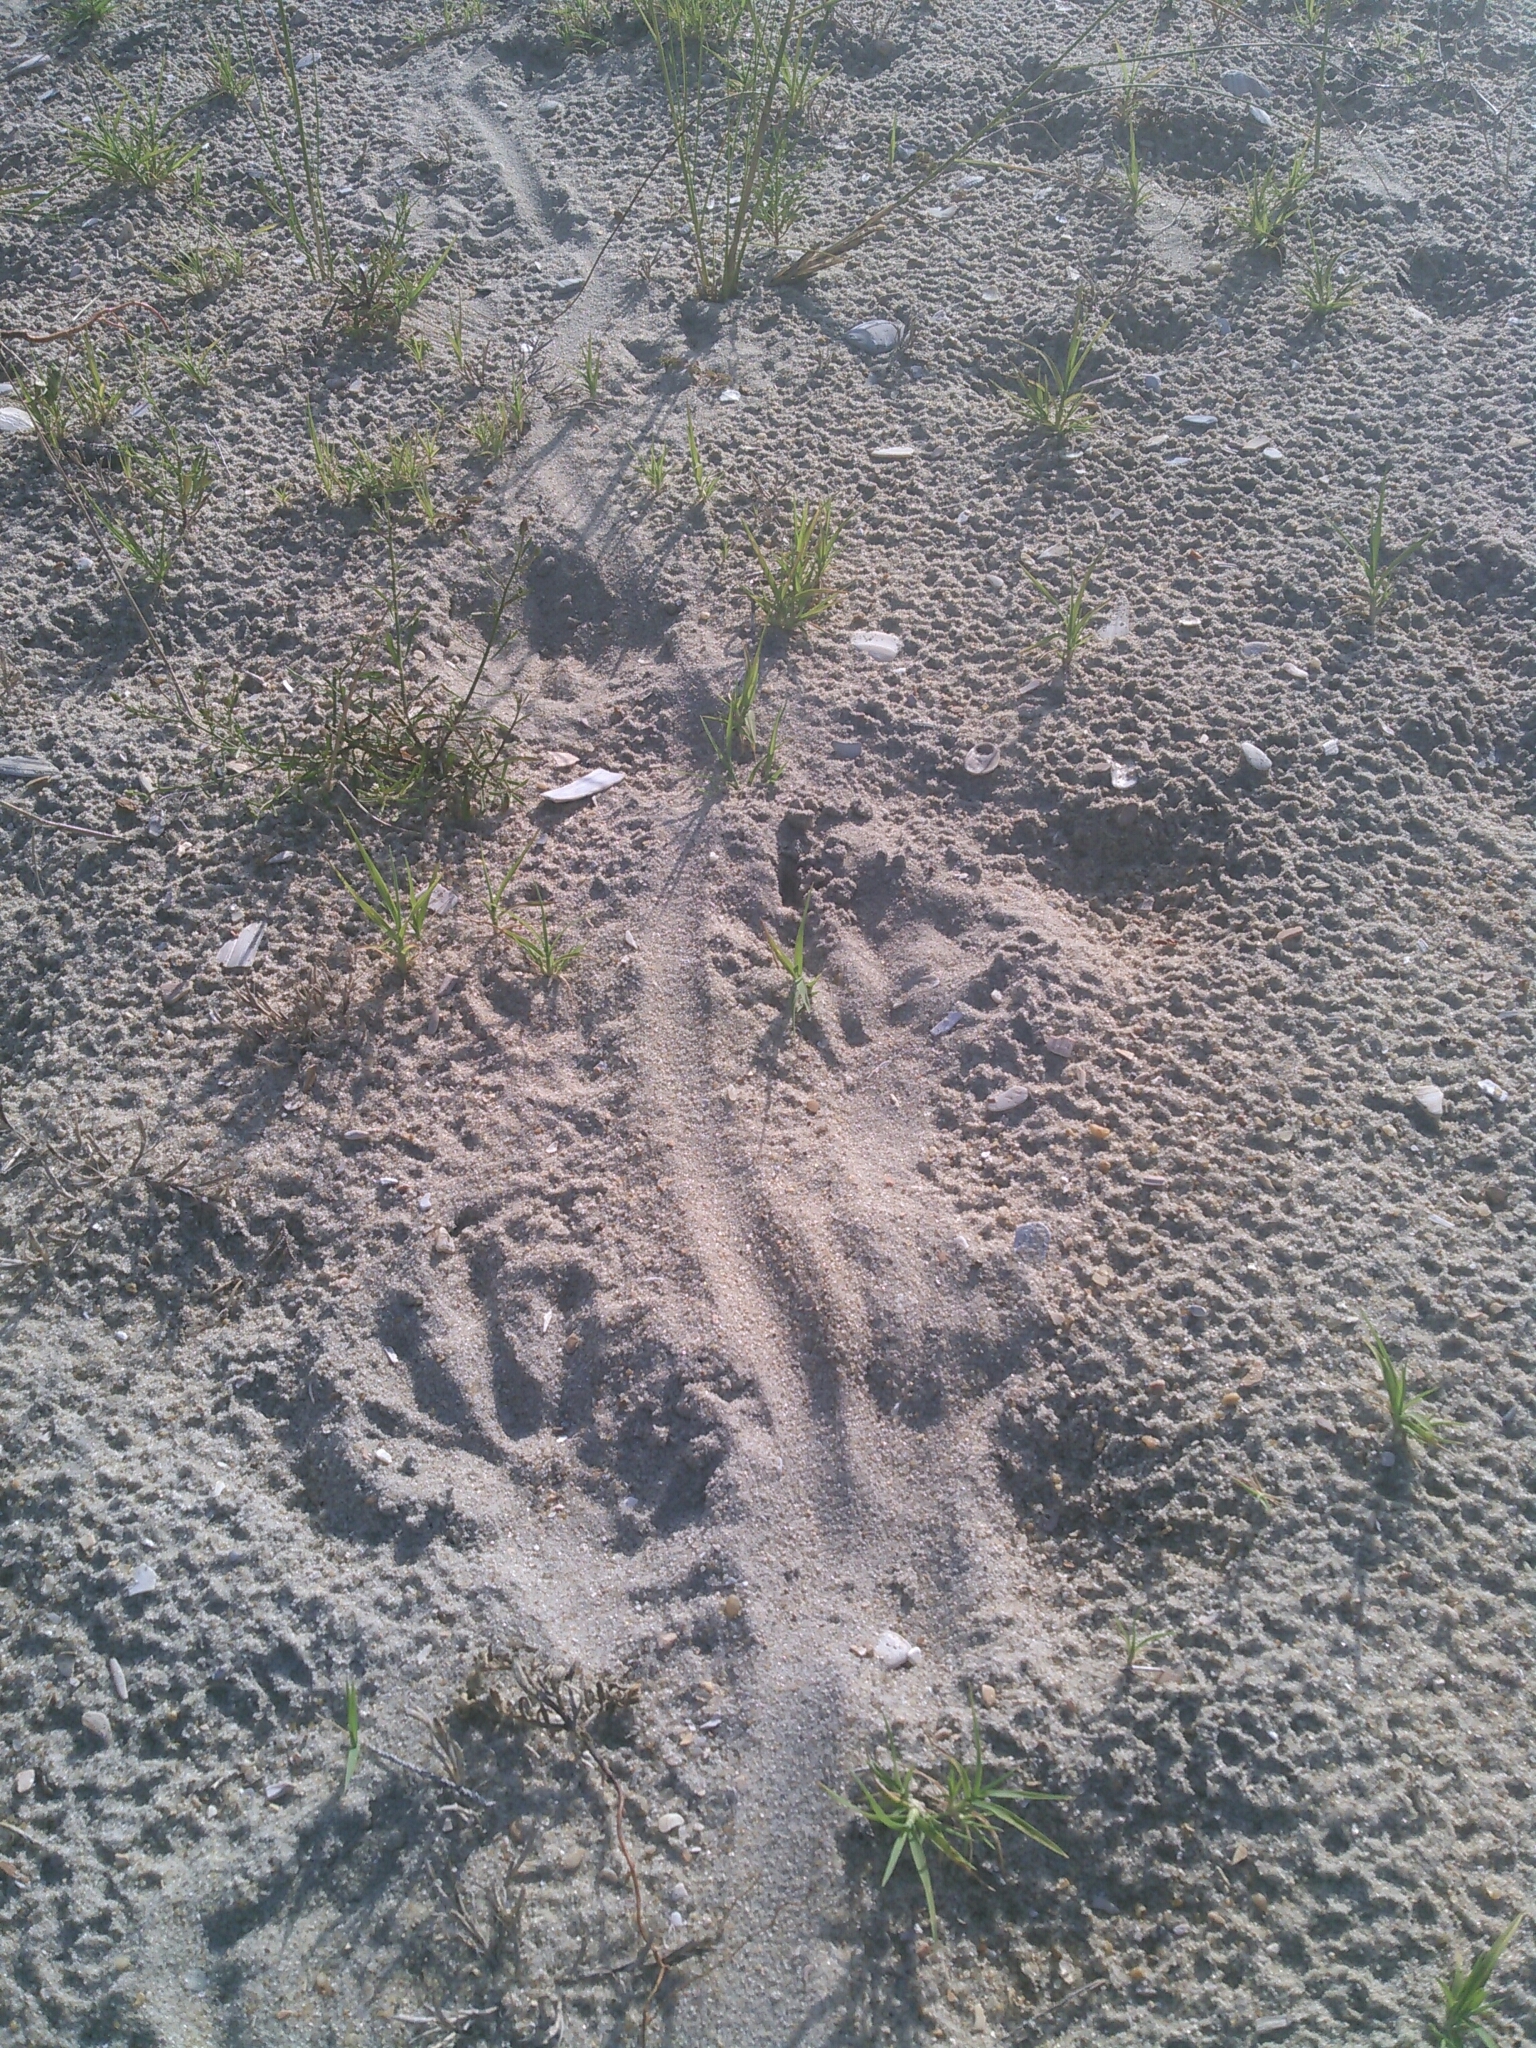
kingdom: Animalia
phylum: Chordata
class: Mammalia
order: Rodentia
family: Myocastoridae
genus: Myocastor
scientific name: Myocastor coypus
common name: Coypu
